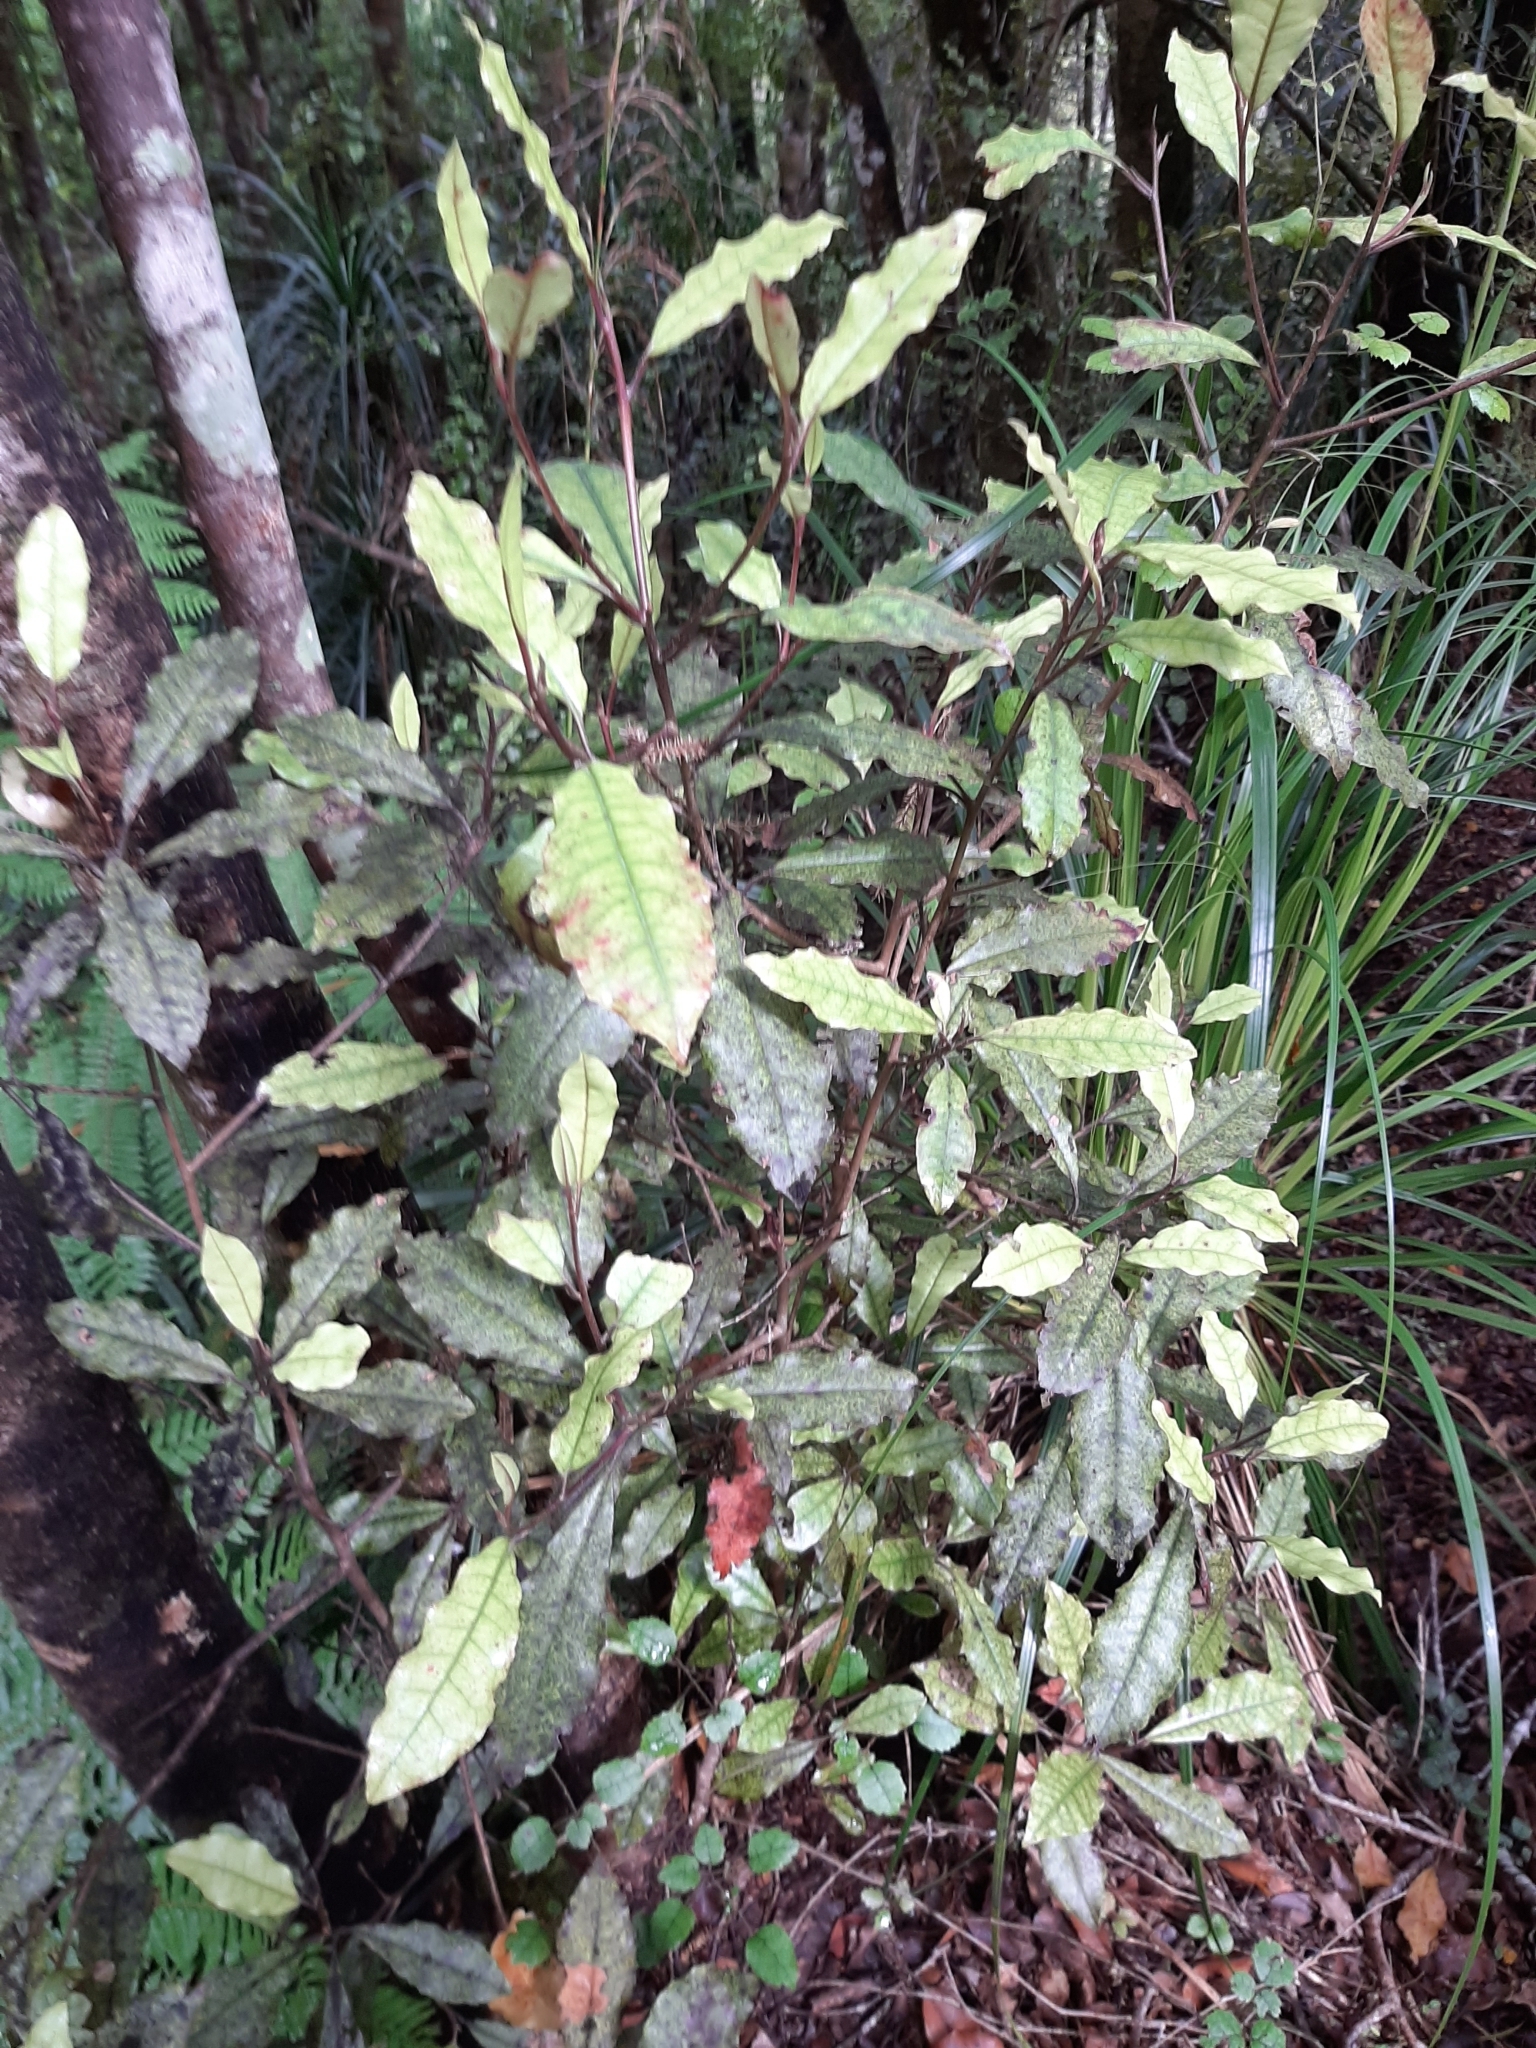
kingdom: Plantae
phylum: Tracheophyta
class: Magnoliopsida
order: Paracryphiales
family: Paracryphiaceae
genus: Quintinia
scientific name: Quintinia serrata
